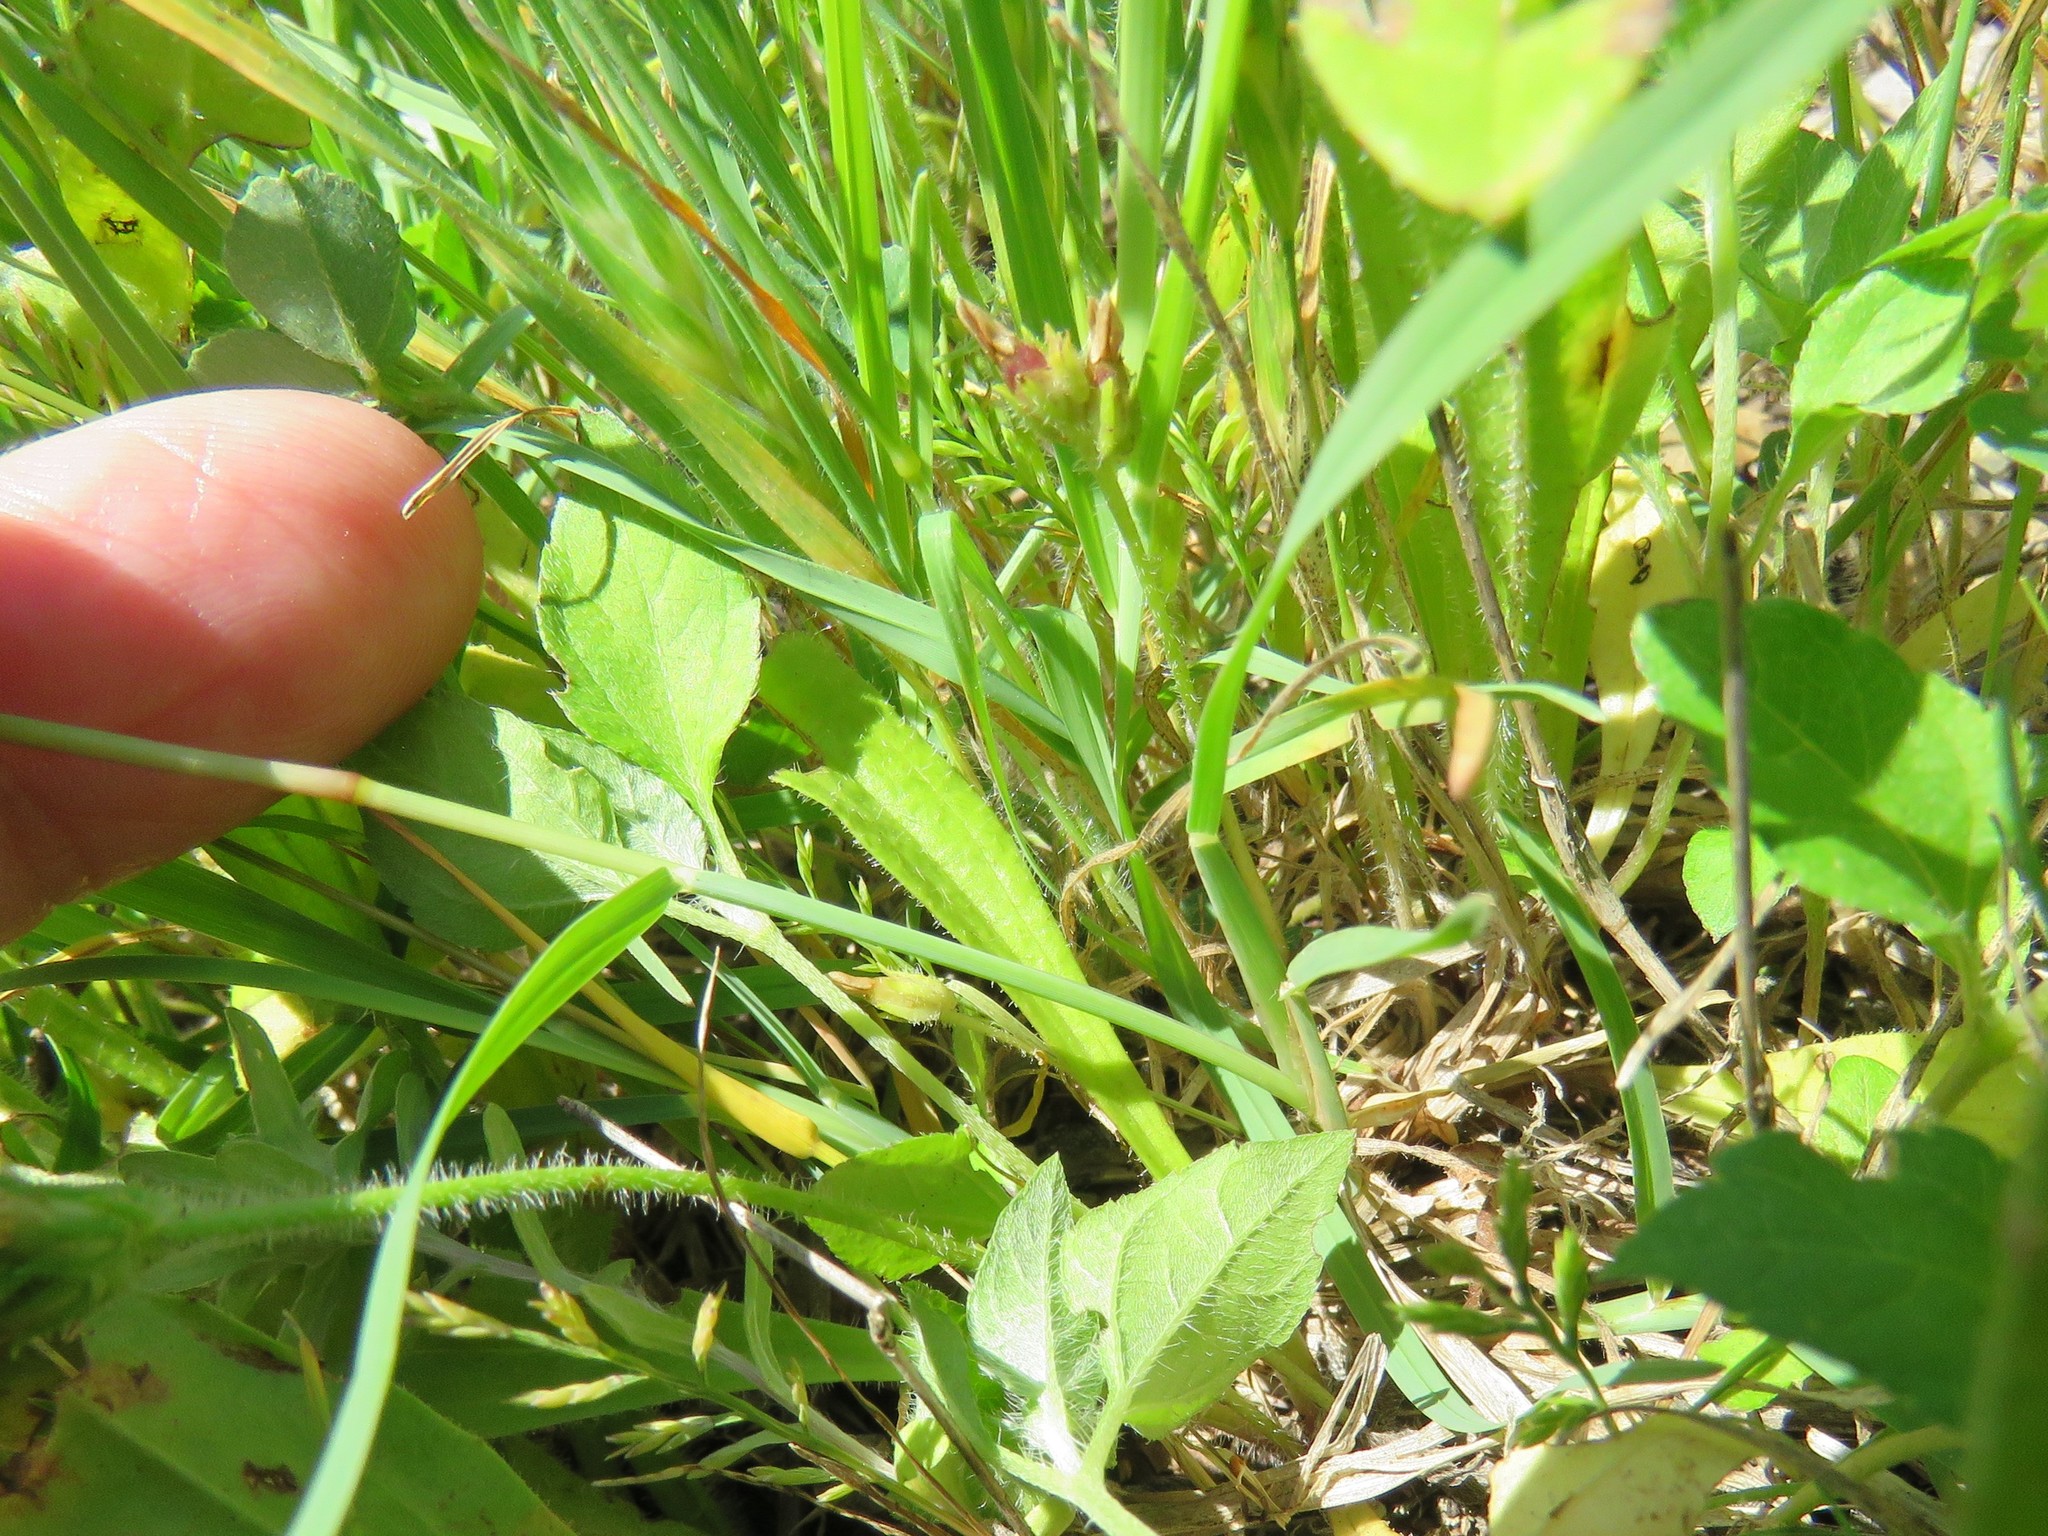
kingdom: Plantae
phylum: Tracheophyta
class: Liliopsida
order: Poales
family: Poaceae
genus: Chloris
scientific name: Chloris verticillata
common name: Tumble windmill grass
